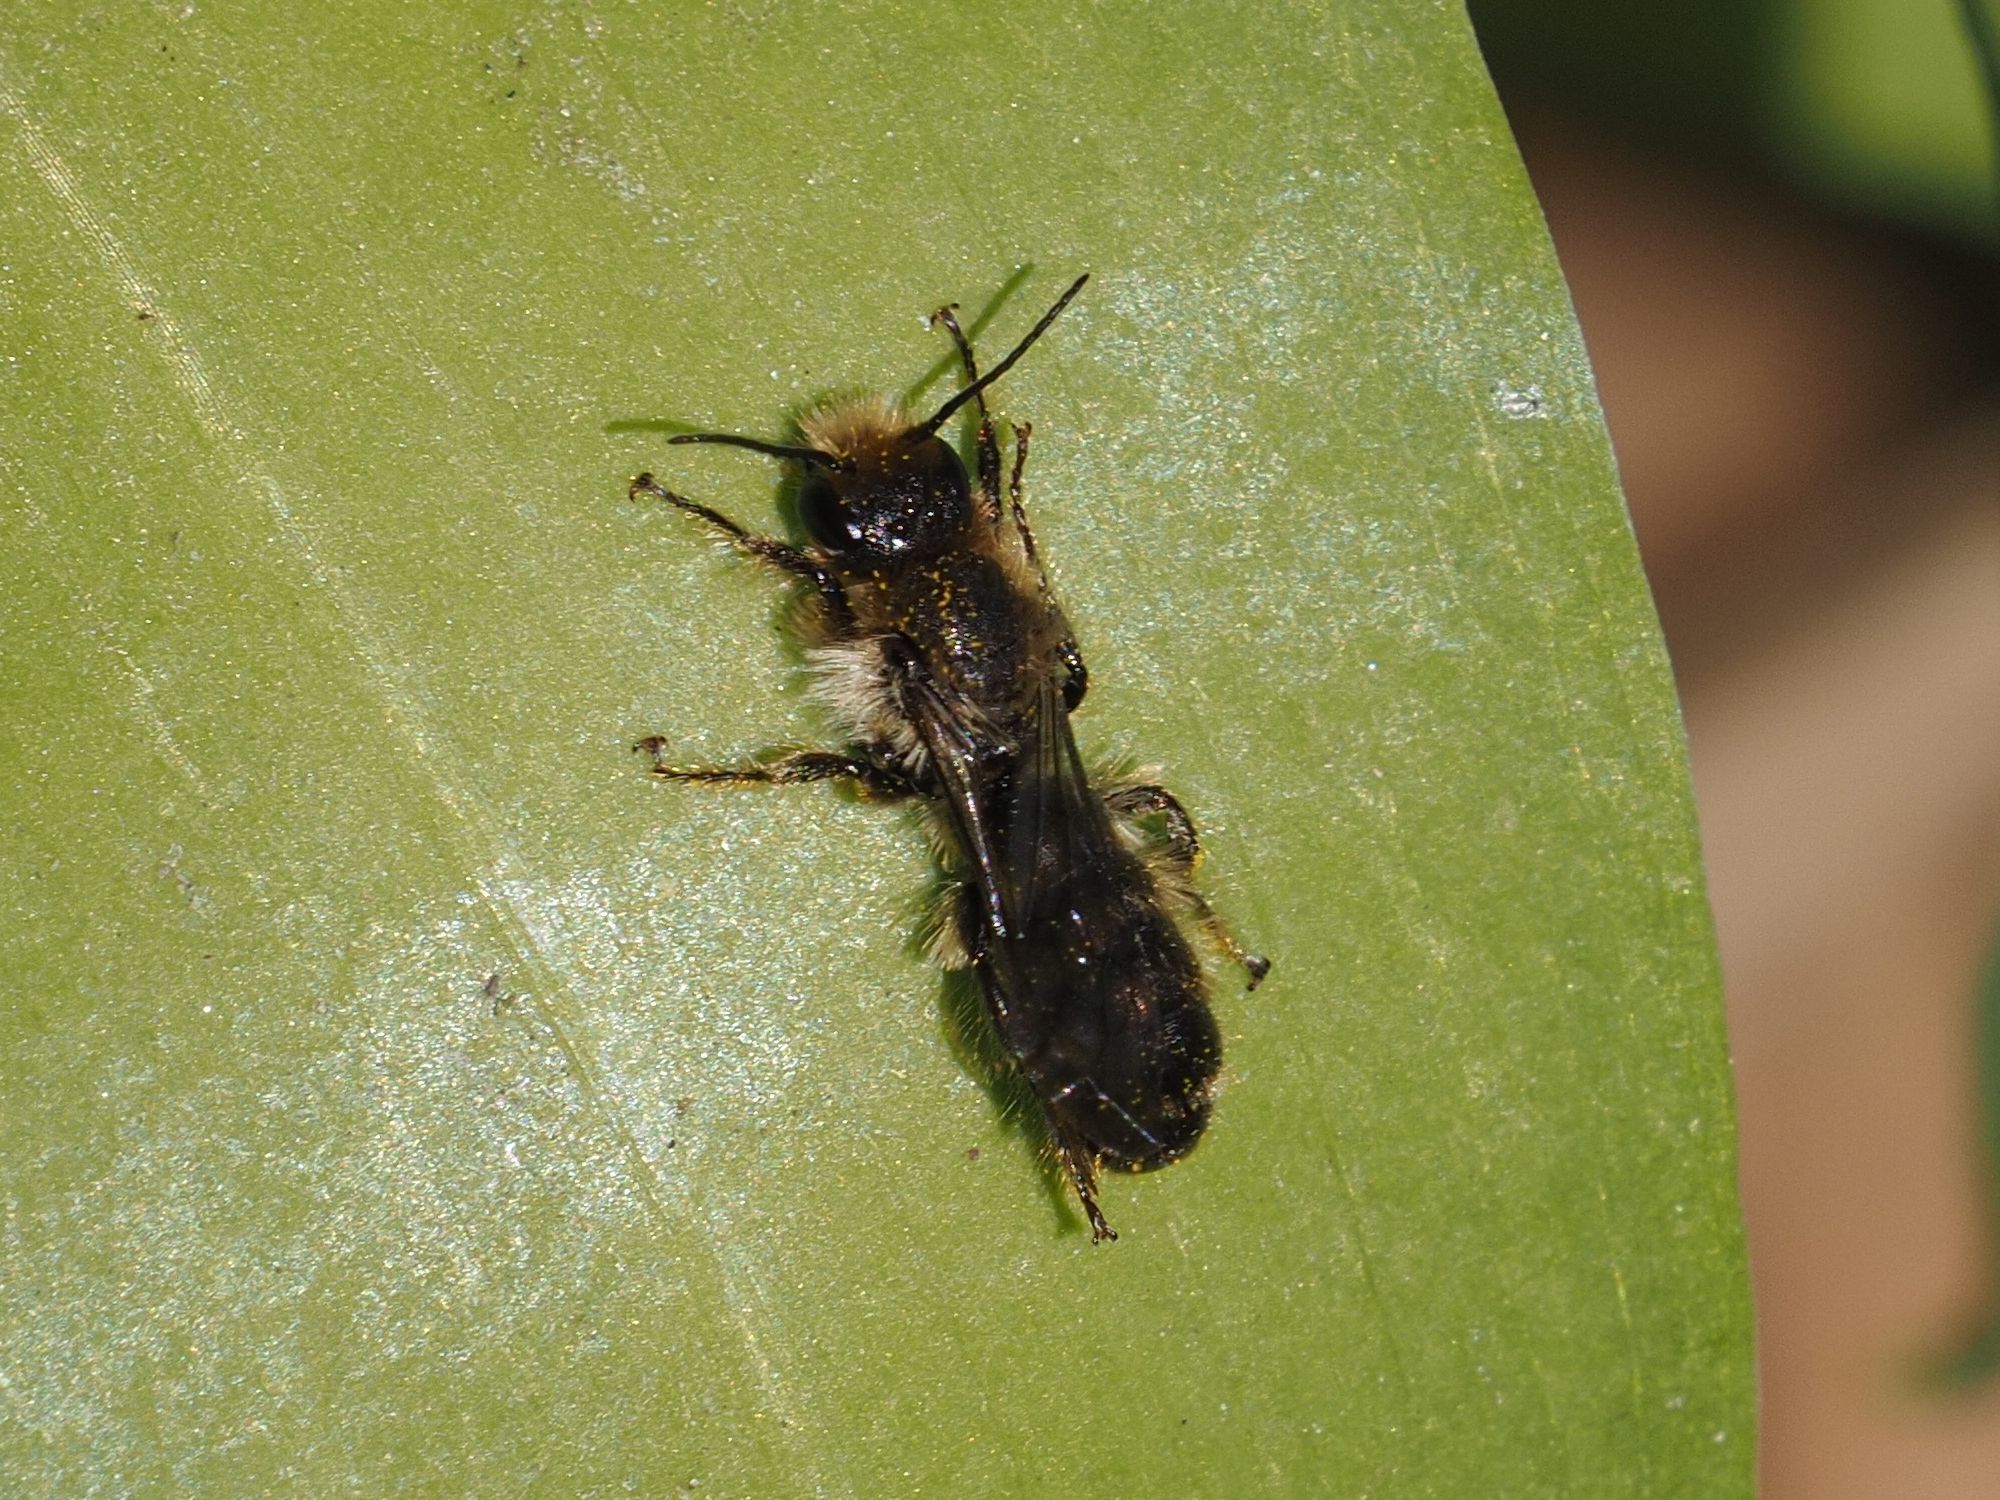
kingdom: Animalia
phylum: Arthropoda
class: Insecta
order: Hymenoptera
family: Megachilidae
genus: Chelostoma
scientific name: Chelostoma florisomne
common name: Sleepy carpenter bee
